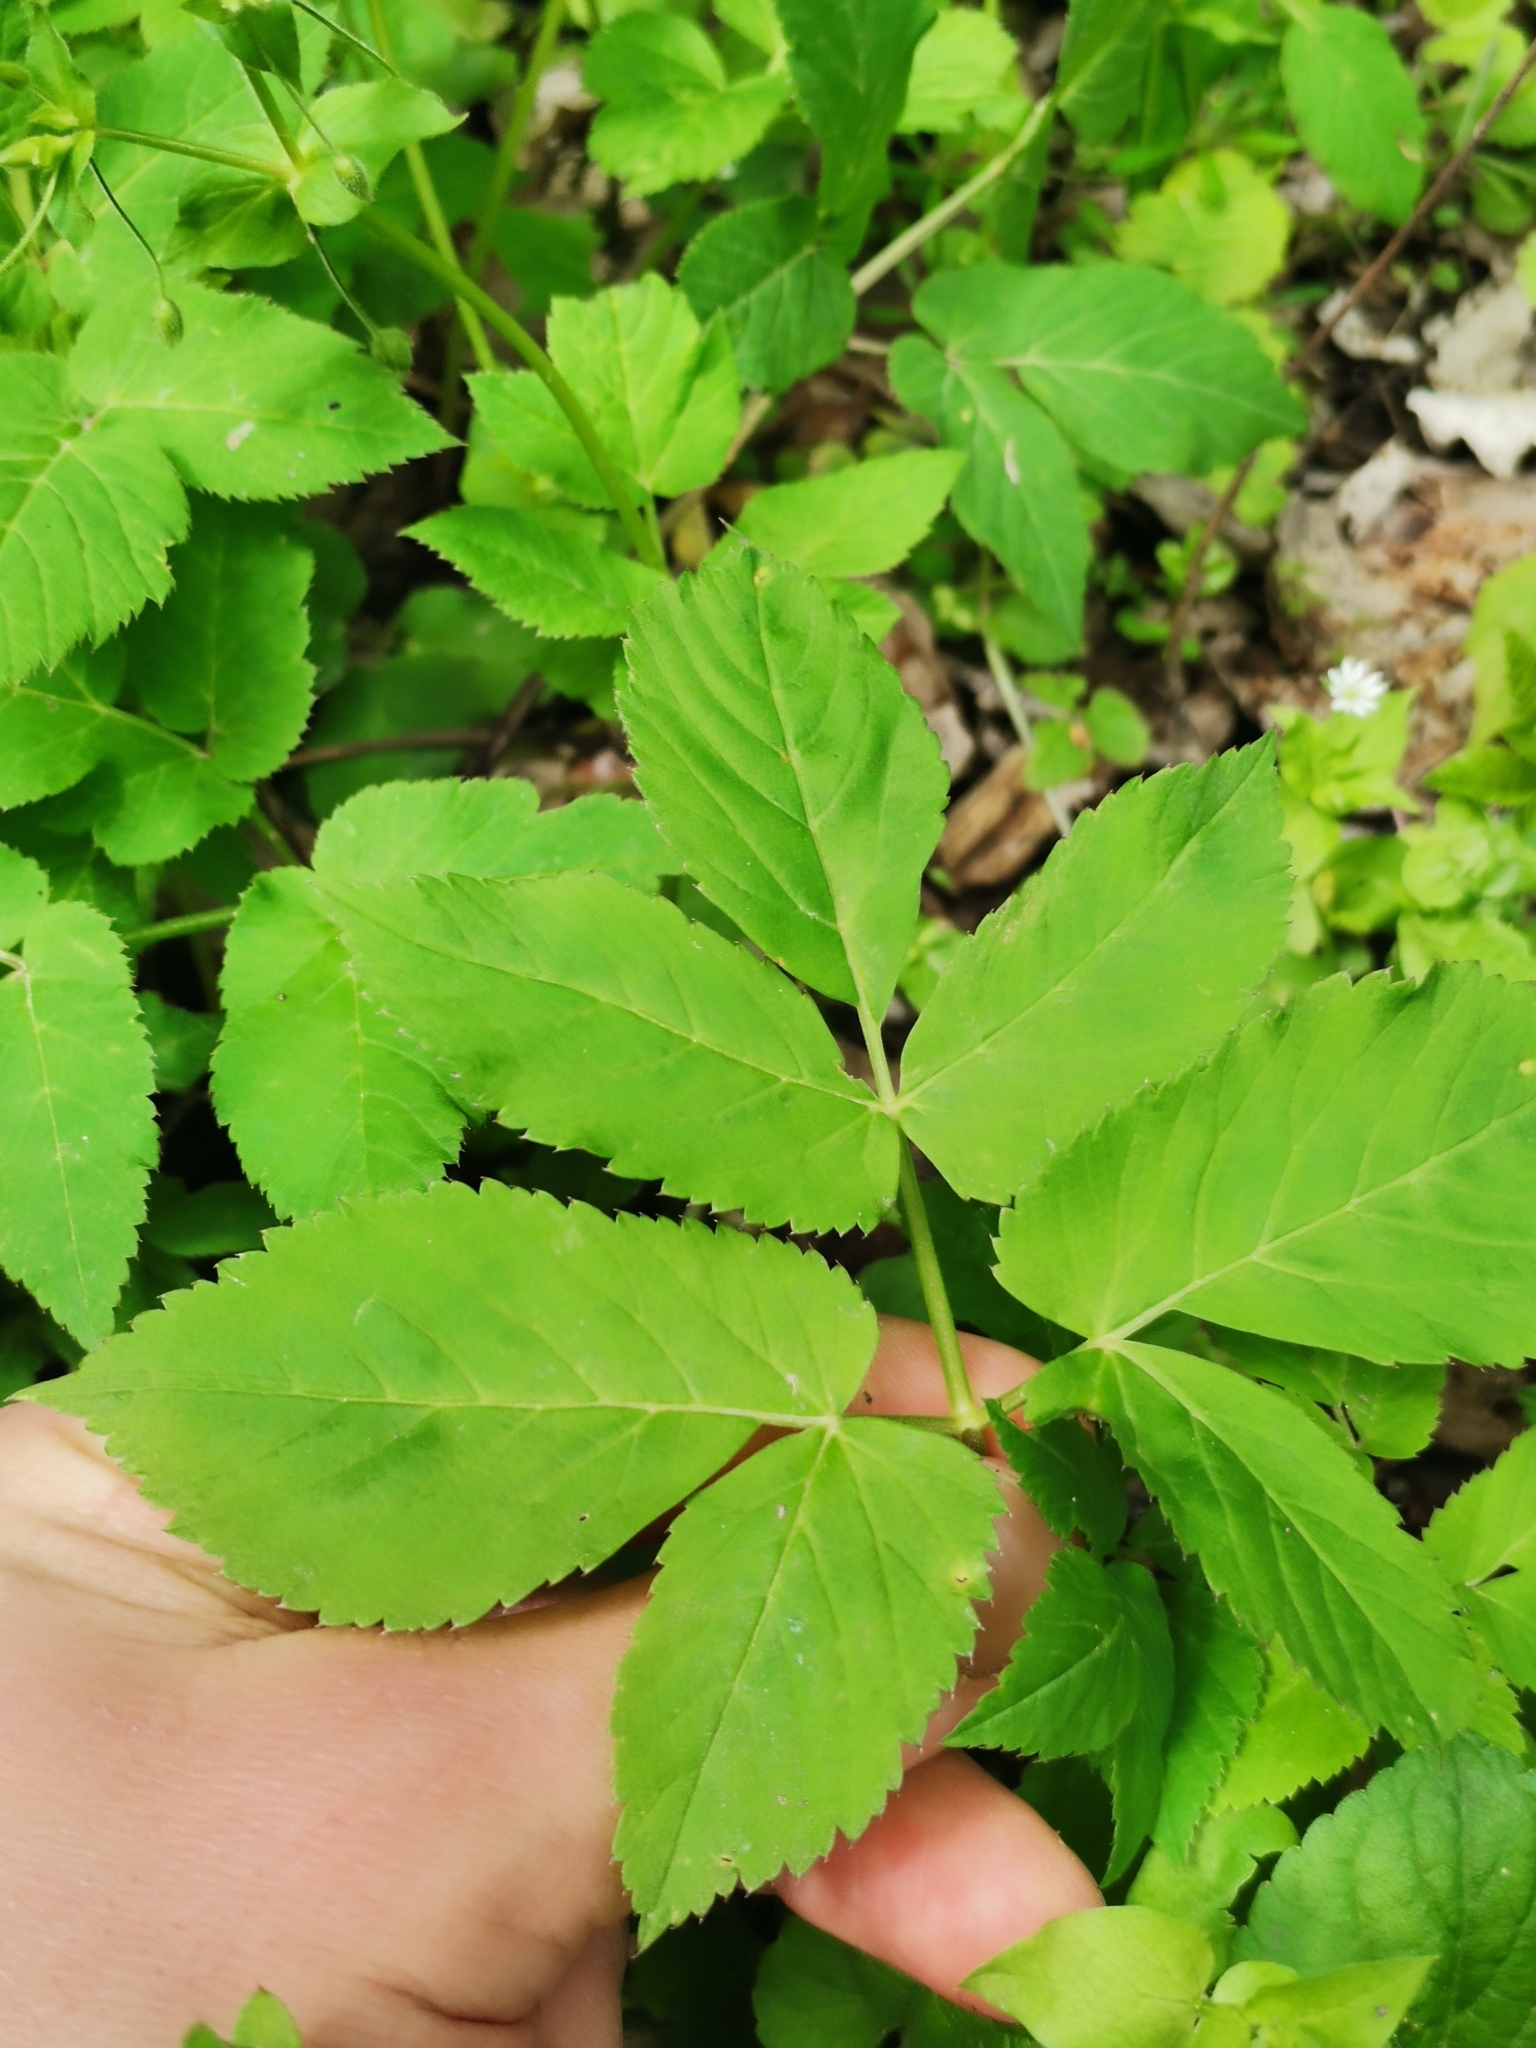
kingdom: Plantae
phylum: Tracheophyta
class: Magnoliopsida
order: Apiales
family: Apiaceae
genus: Aegopodium
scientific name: Aegopodium podagraria
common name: Ground-elder
